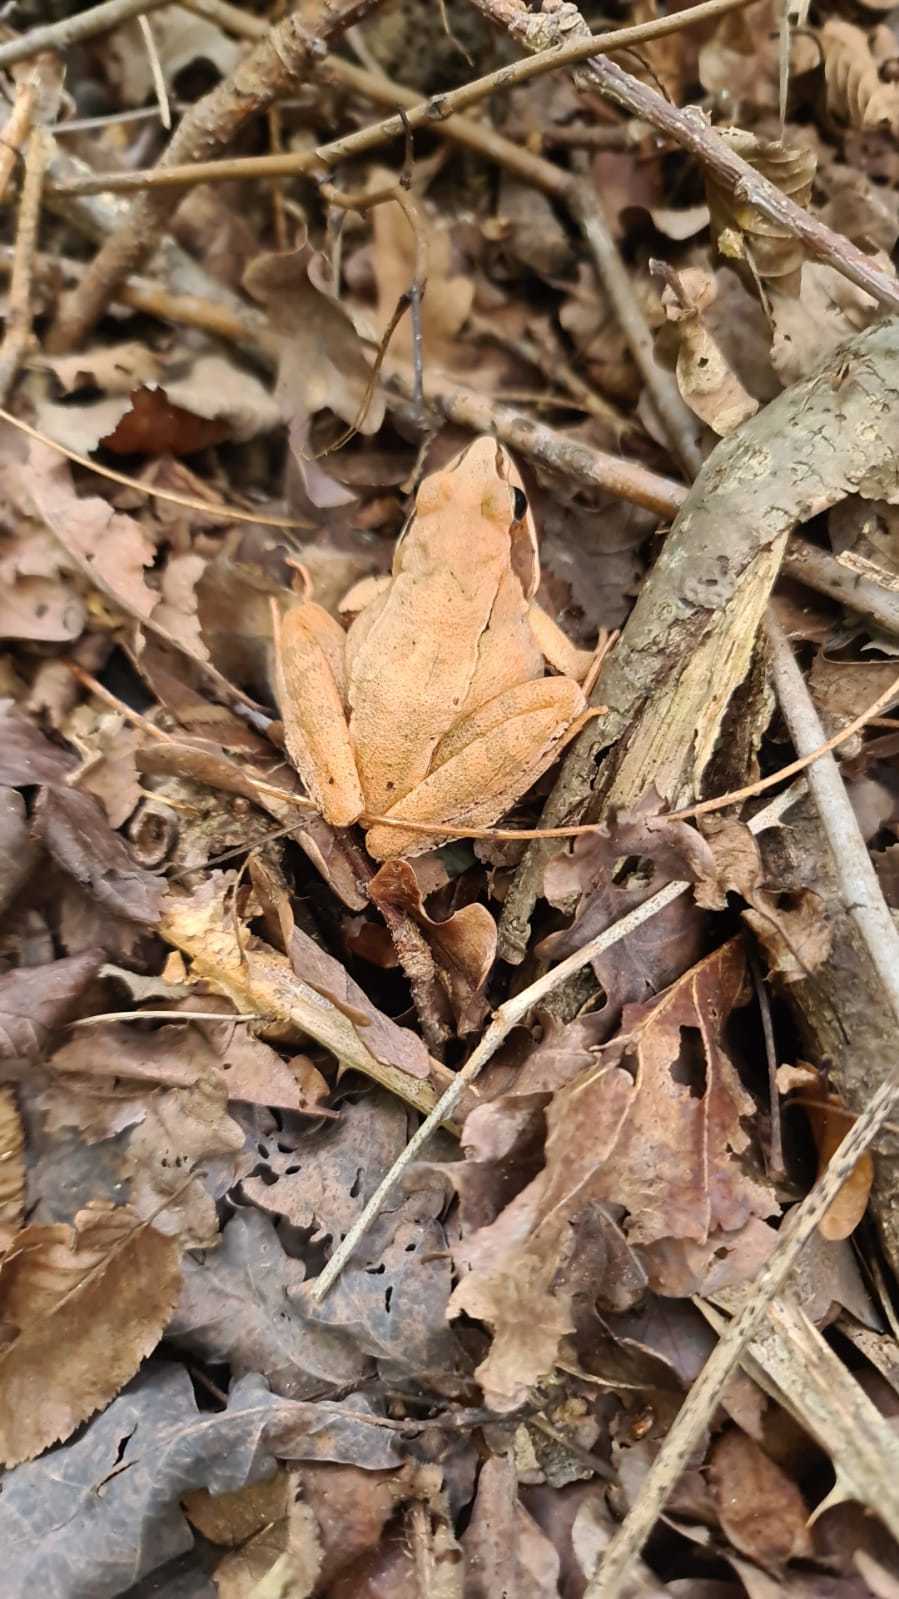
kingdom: Animalia
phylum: Chordata
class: Amphibia
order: Anura
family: Ranidae
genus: Rana
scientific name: Rana dalmatina
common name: Agile frog
